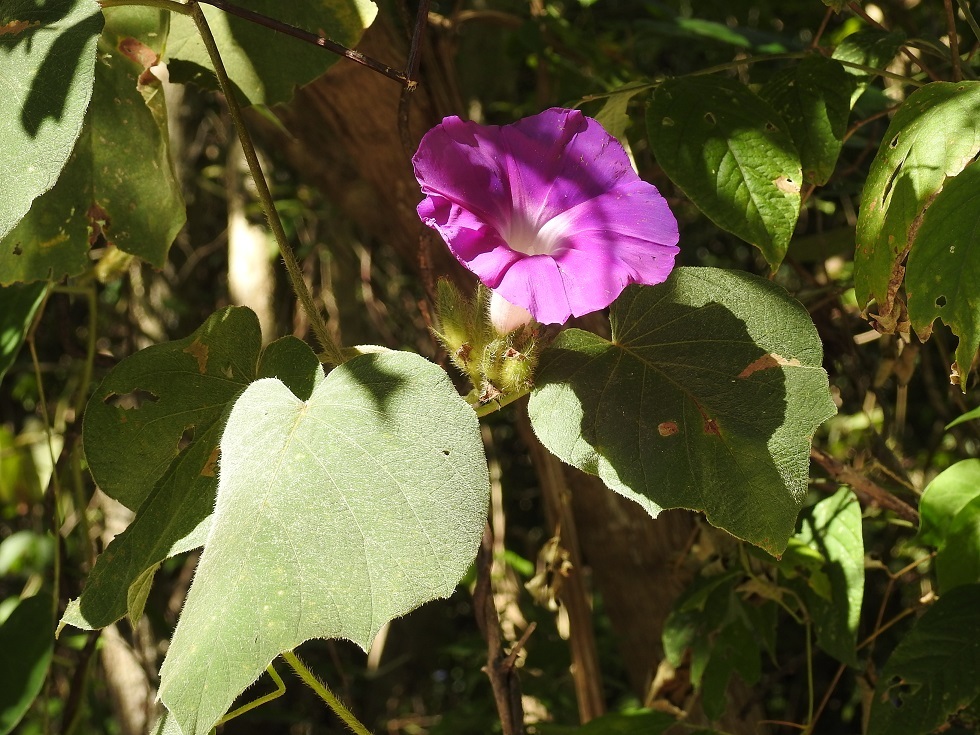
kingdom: Plantae
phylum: Tracheophyta
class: Magnoliopsida
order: Solanales
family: Convolvulaceae
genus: Ipomoea
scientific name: Ipomoea villifera
